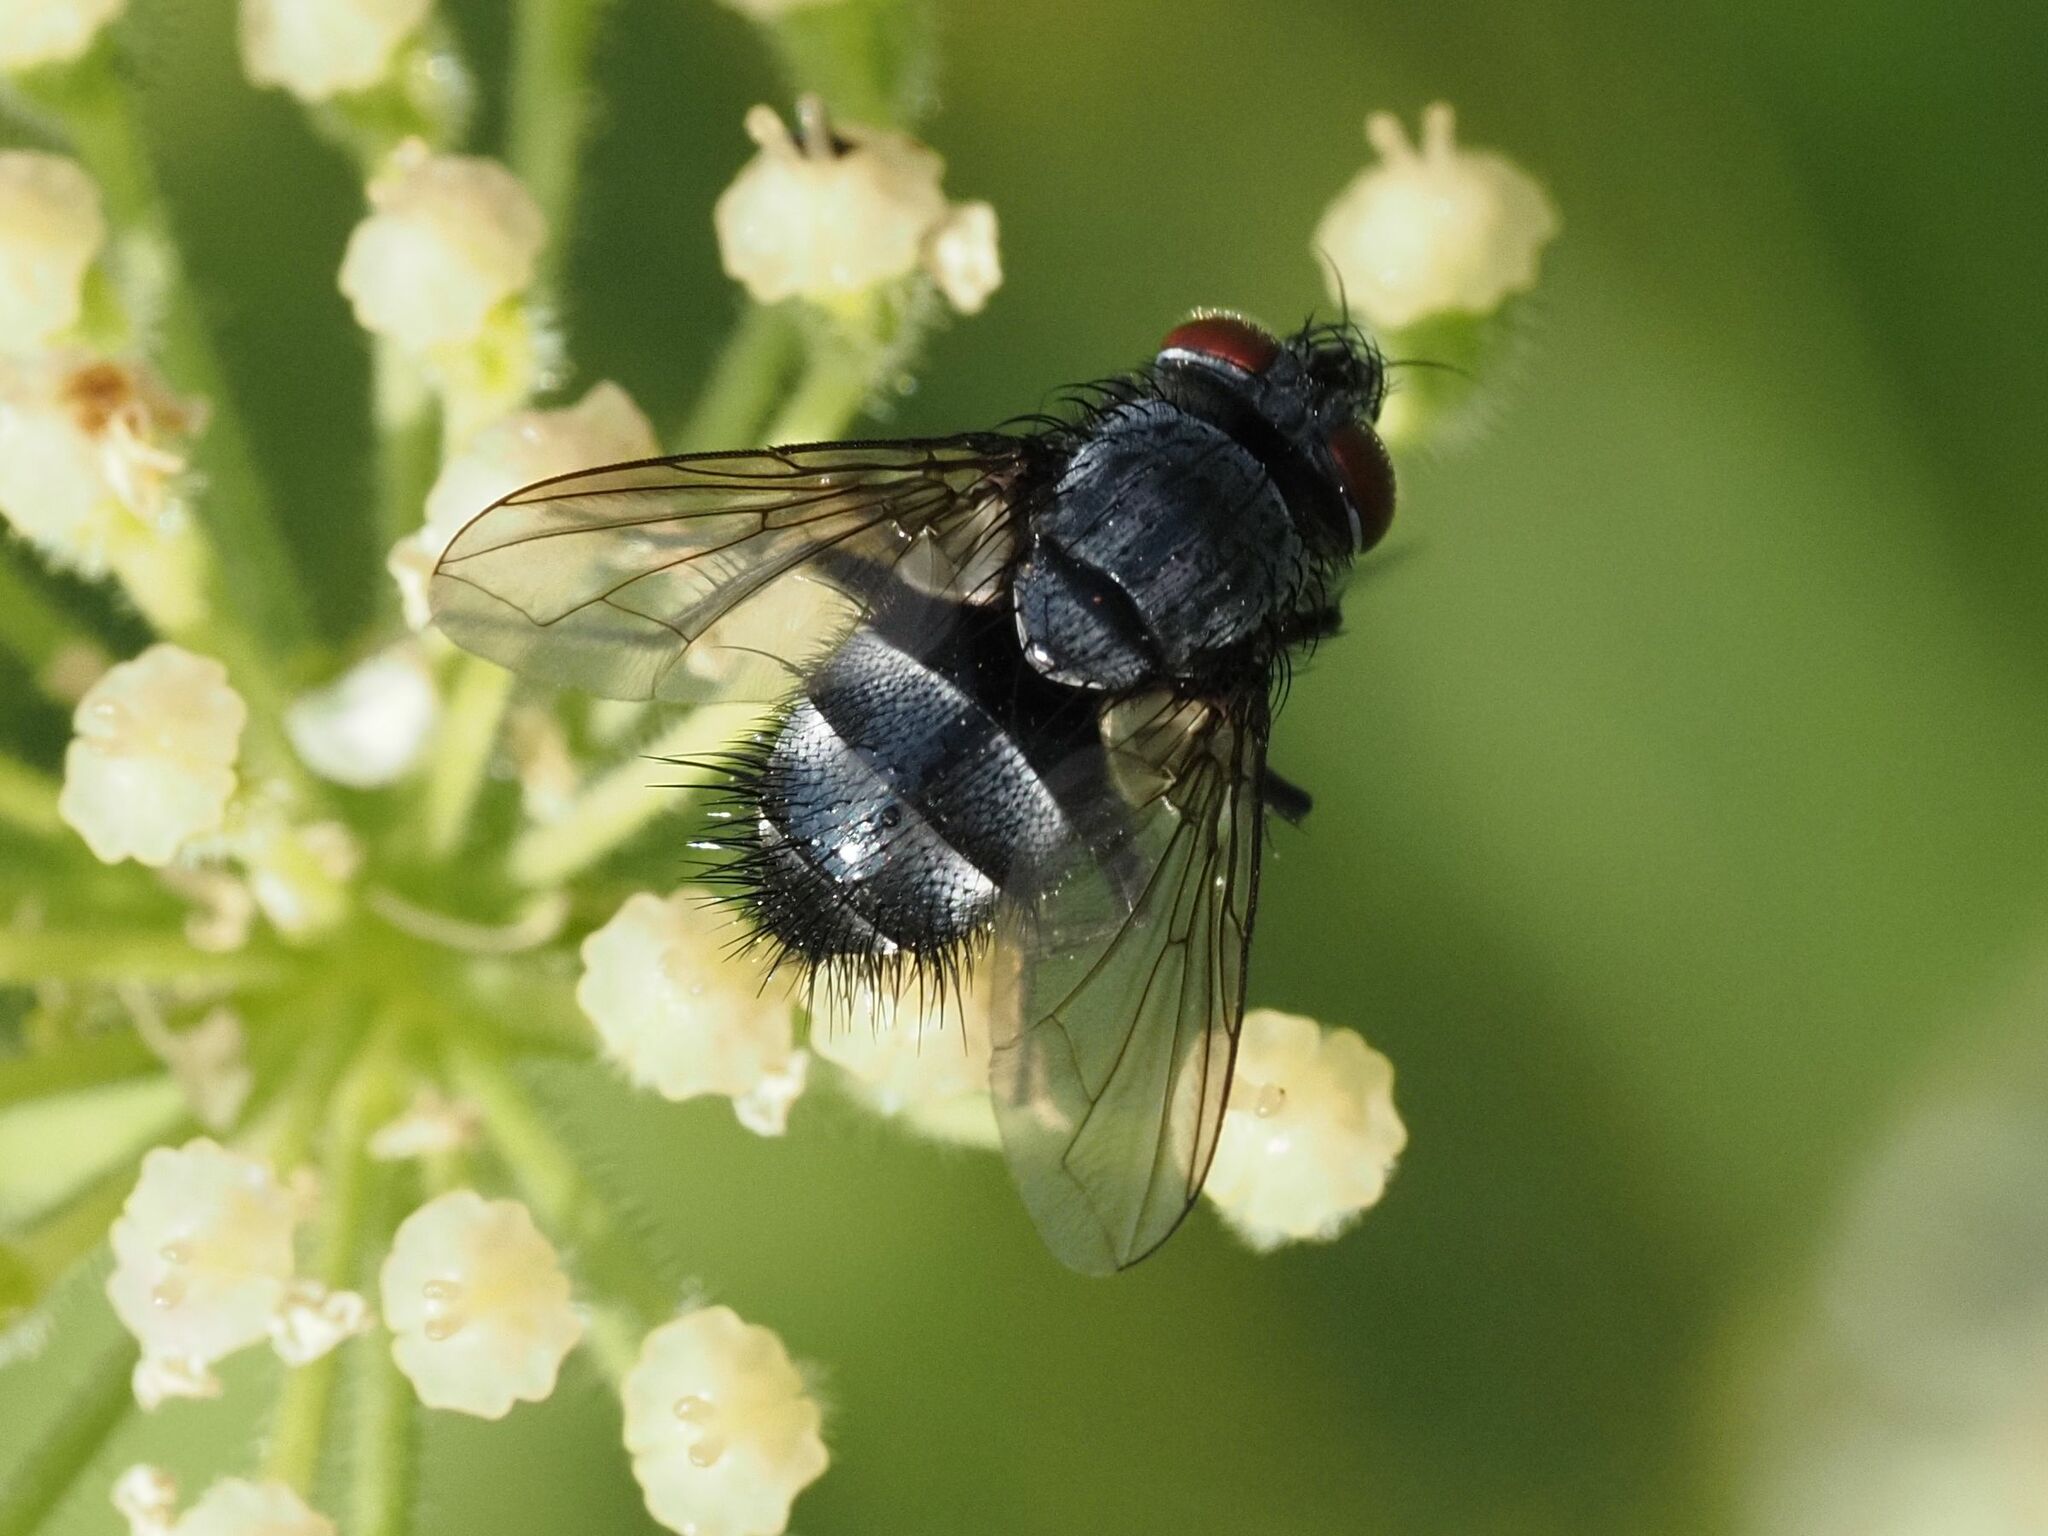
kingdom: Animalia
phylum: Arthropoda
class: Insecta
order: Diptera
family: Tachinidae
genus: Epicampocera
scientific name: Epicampocera succincta
